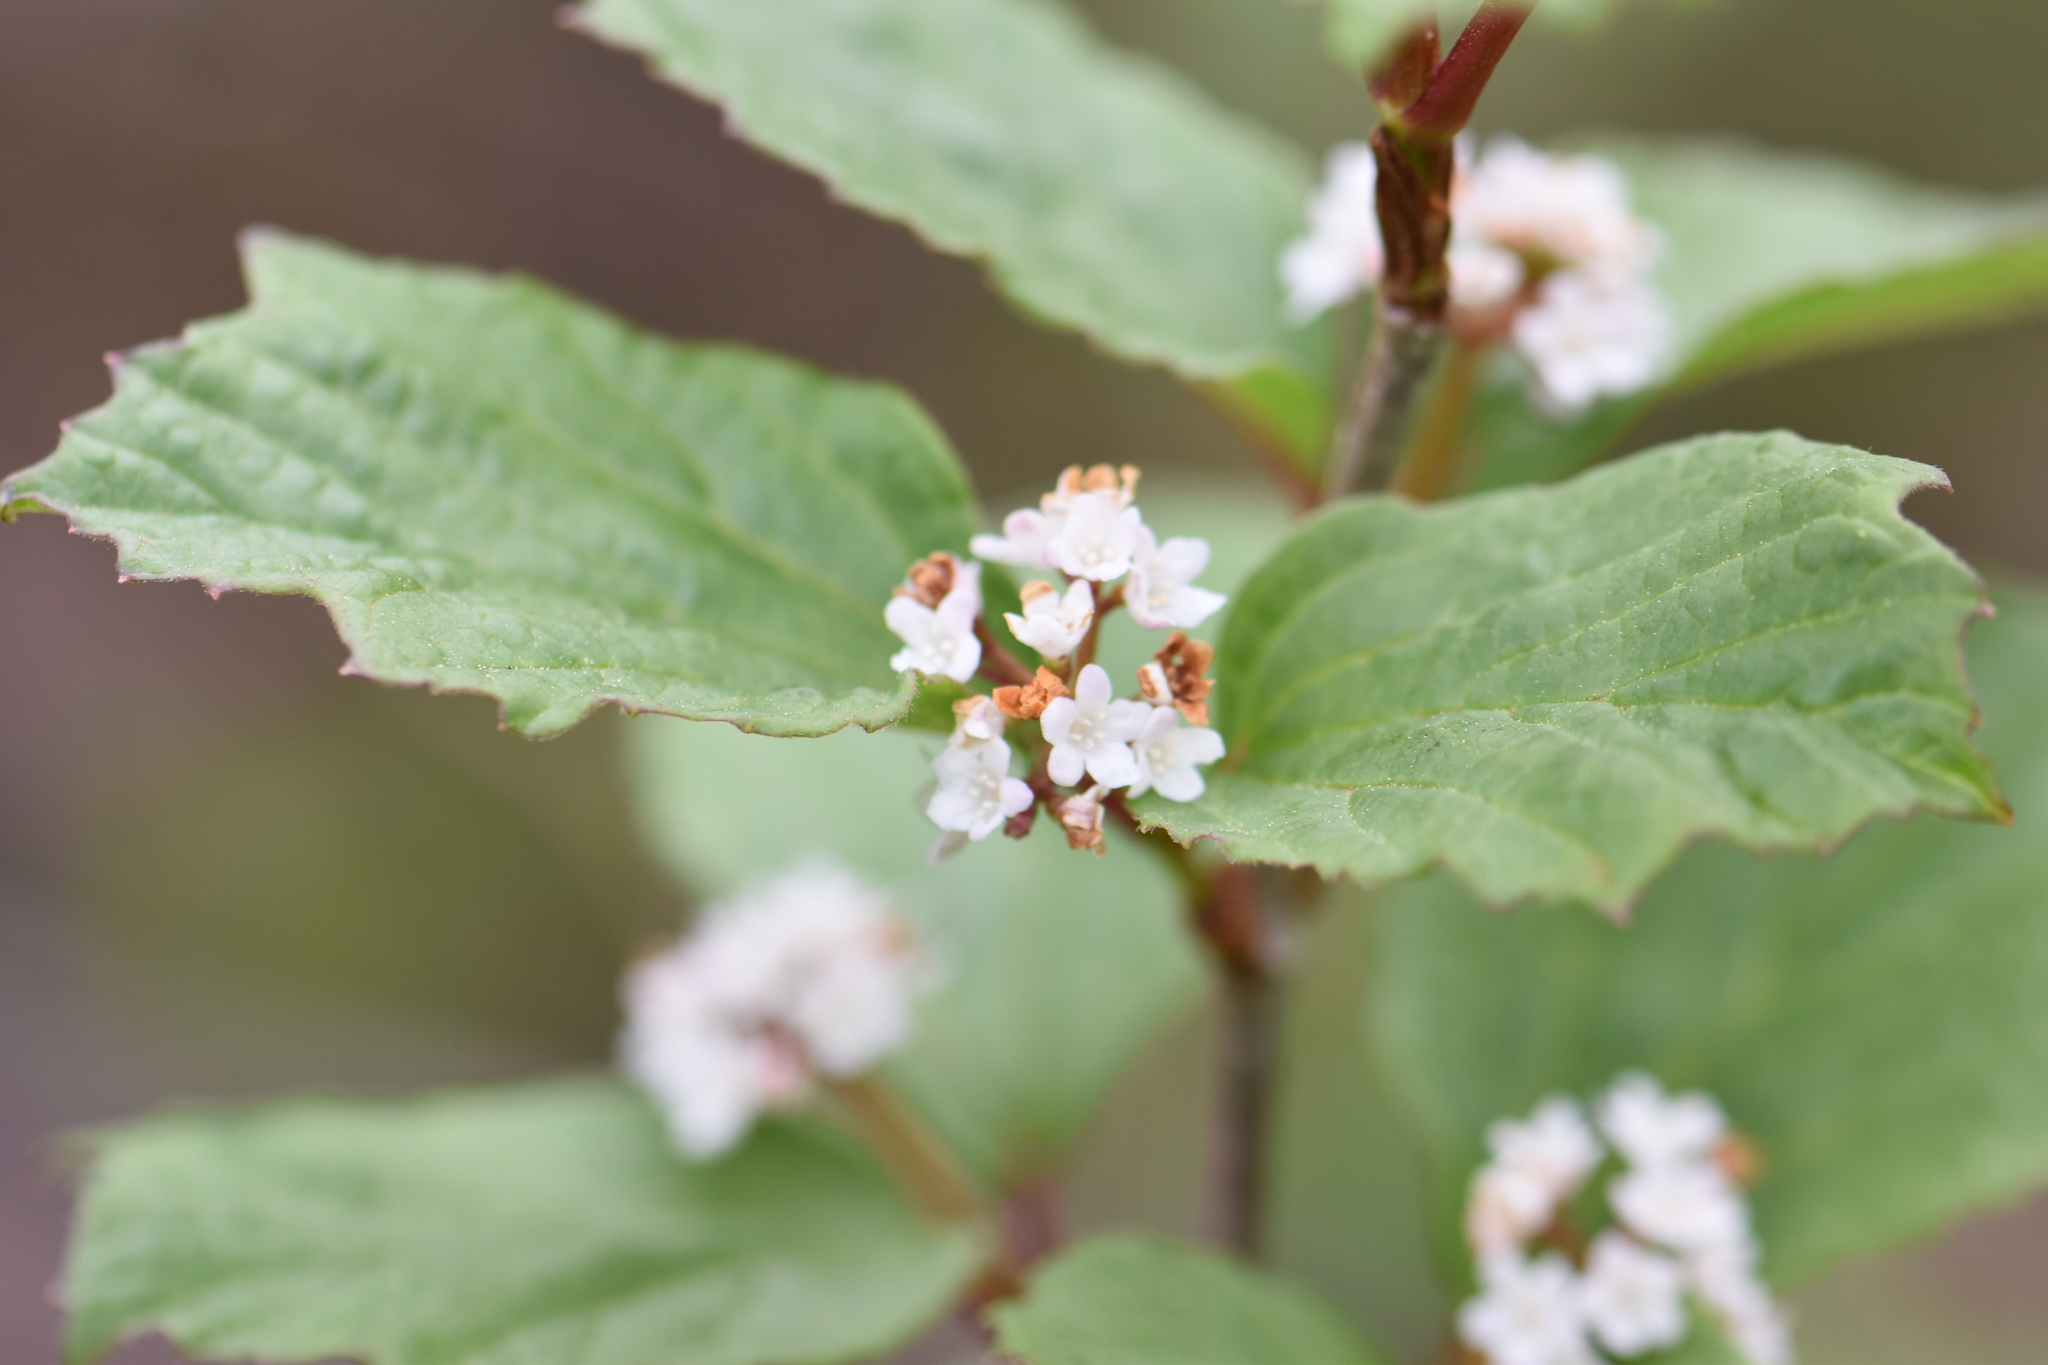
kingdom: Plantae
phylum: Tracheophyta
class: Magnoliopsida
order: Dipsacales
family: Viburnaceae
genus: Viburnum
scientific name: Viburnum edule
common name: Mooseberry
